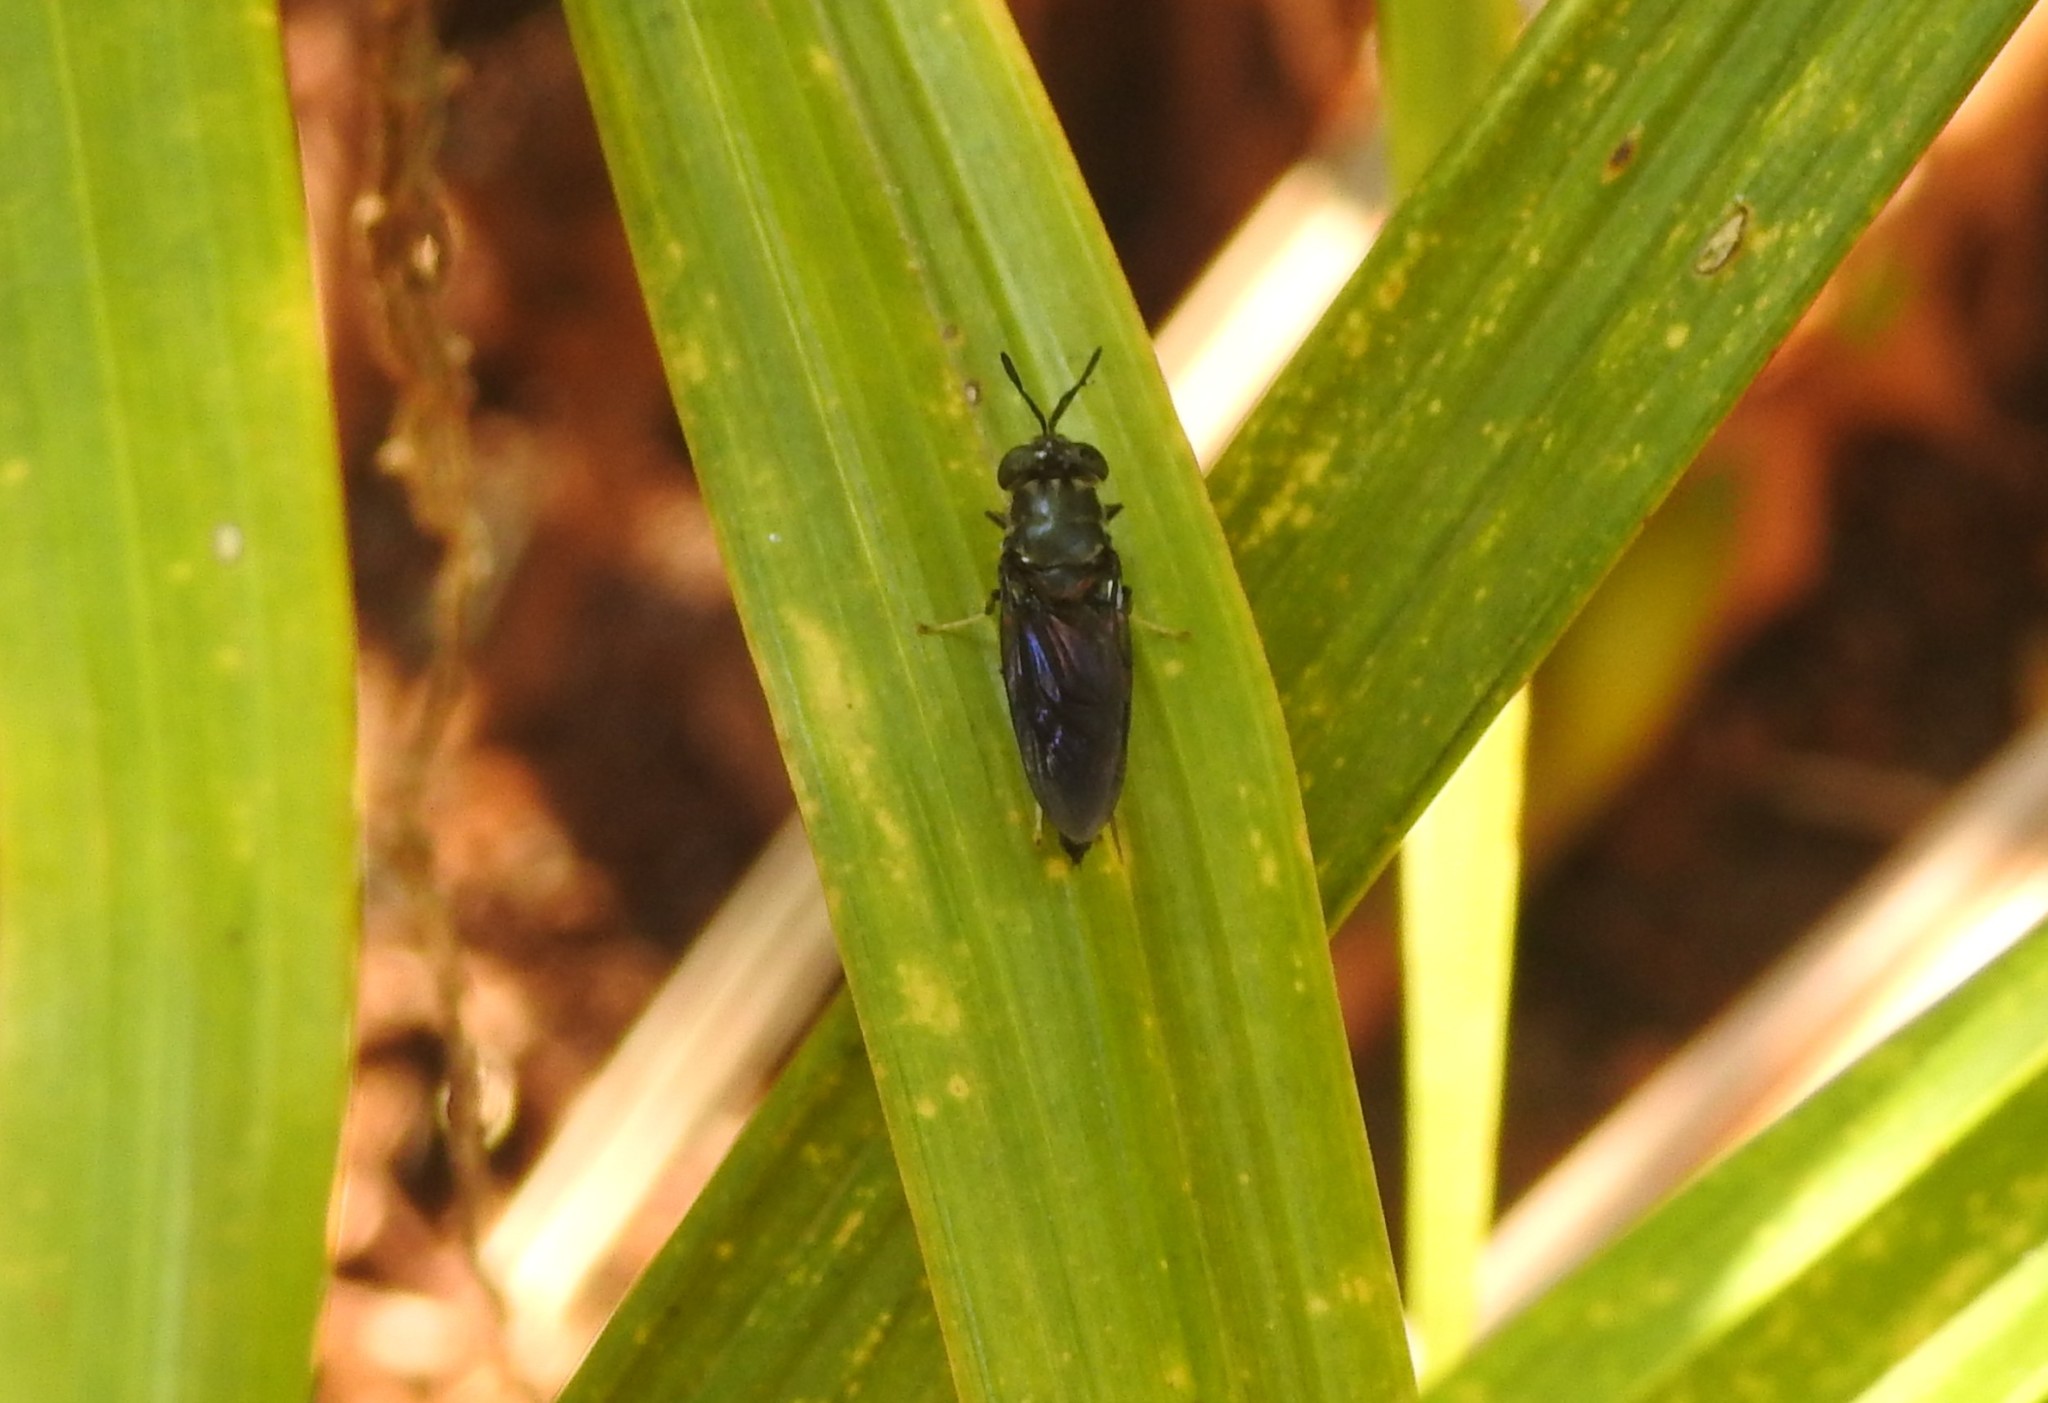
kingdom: Animalia
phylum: Arthropoda
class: Insecta
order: Diptera
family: Stratiomyidae
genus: Hermetia
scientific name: Hermetia illucens
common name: Black soldier fly
